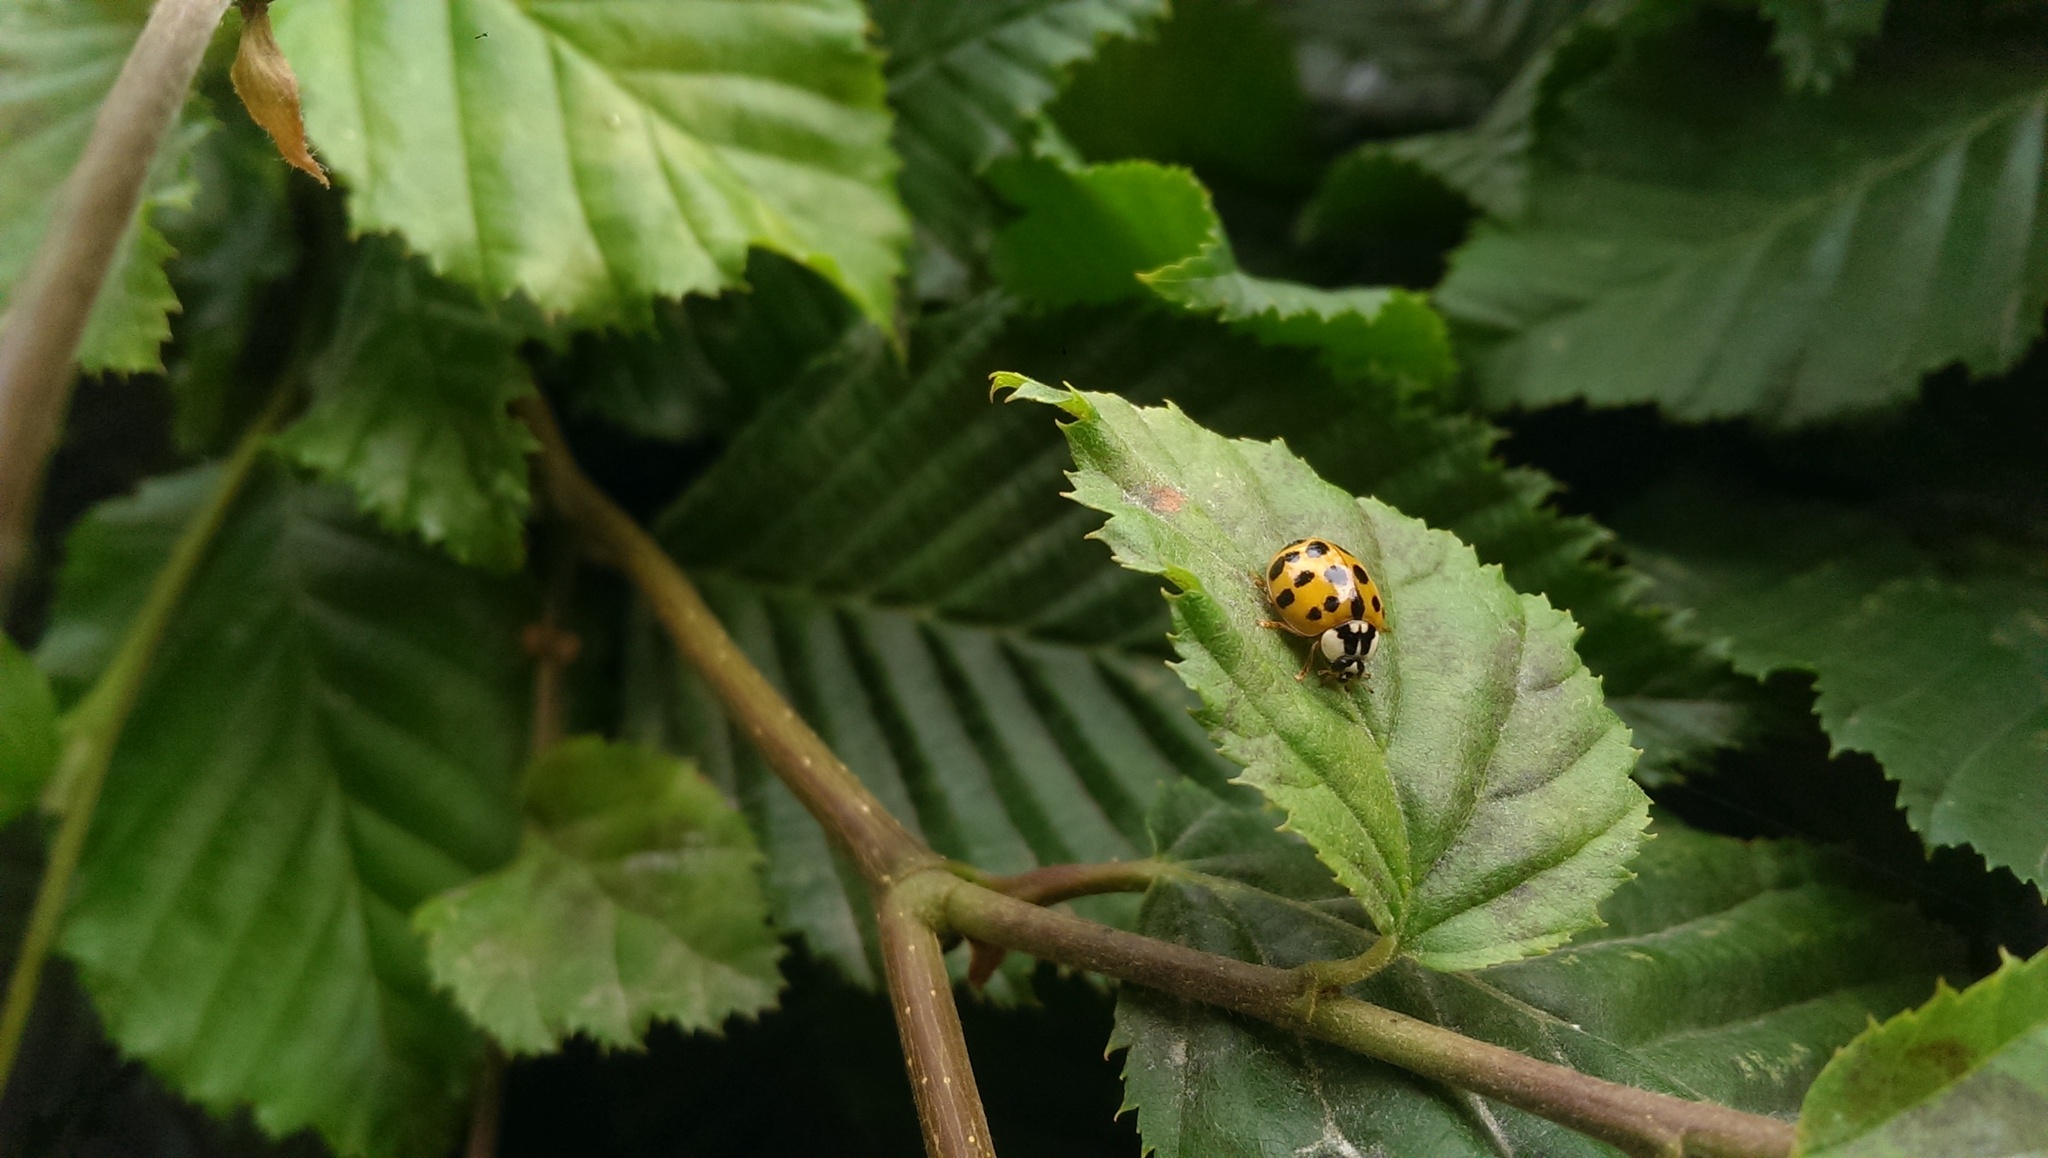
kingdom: Animalia
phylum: Arthropoda
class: Insecta
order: Coleoptera
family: Coccinellidae
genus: Harmonia
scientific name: Harmonia axyridis
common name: Harlequin ladybird
